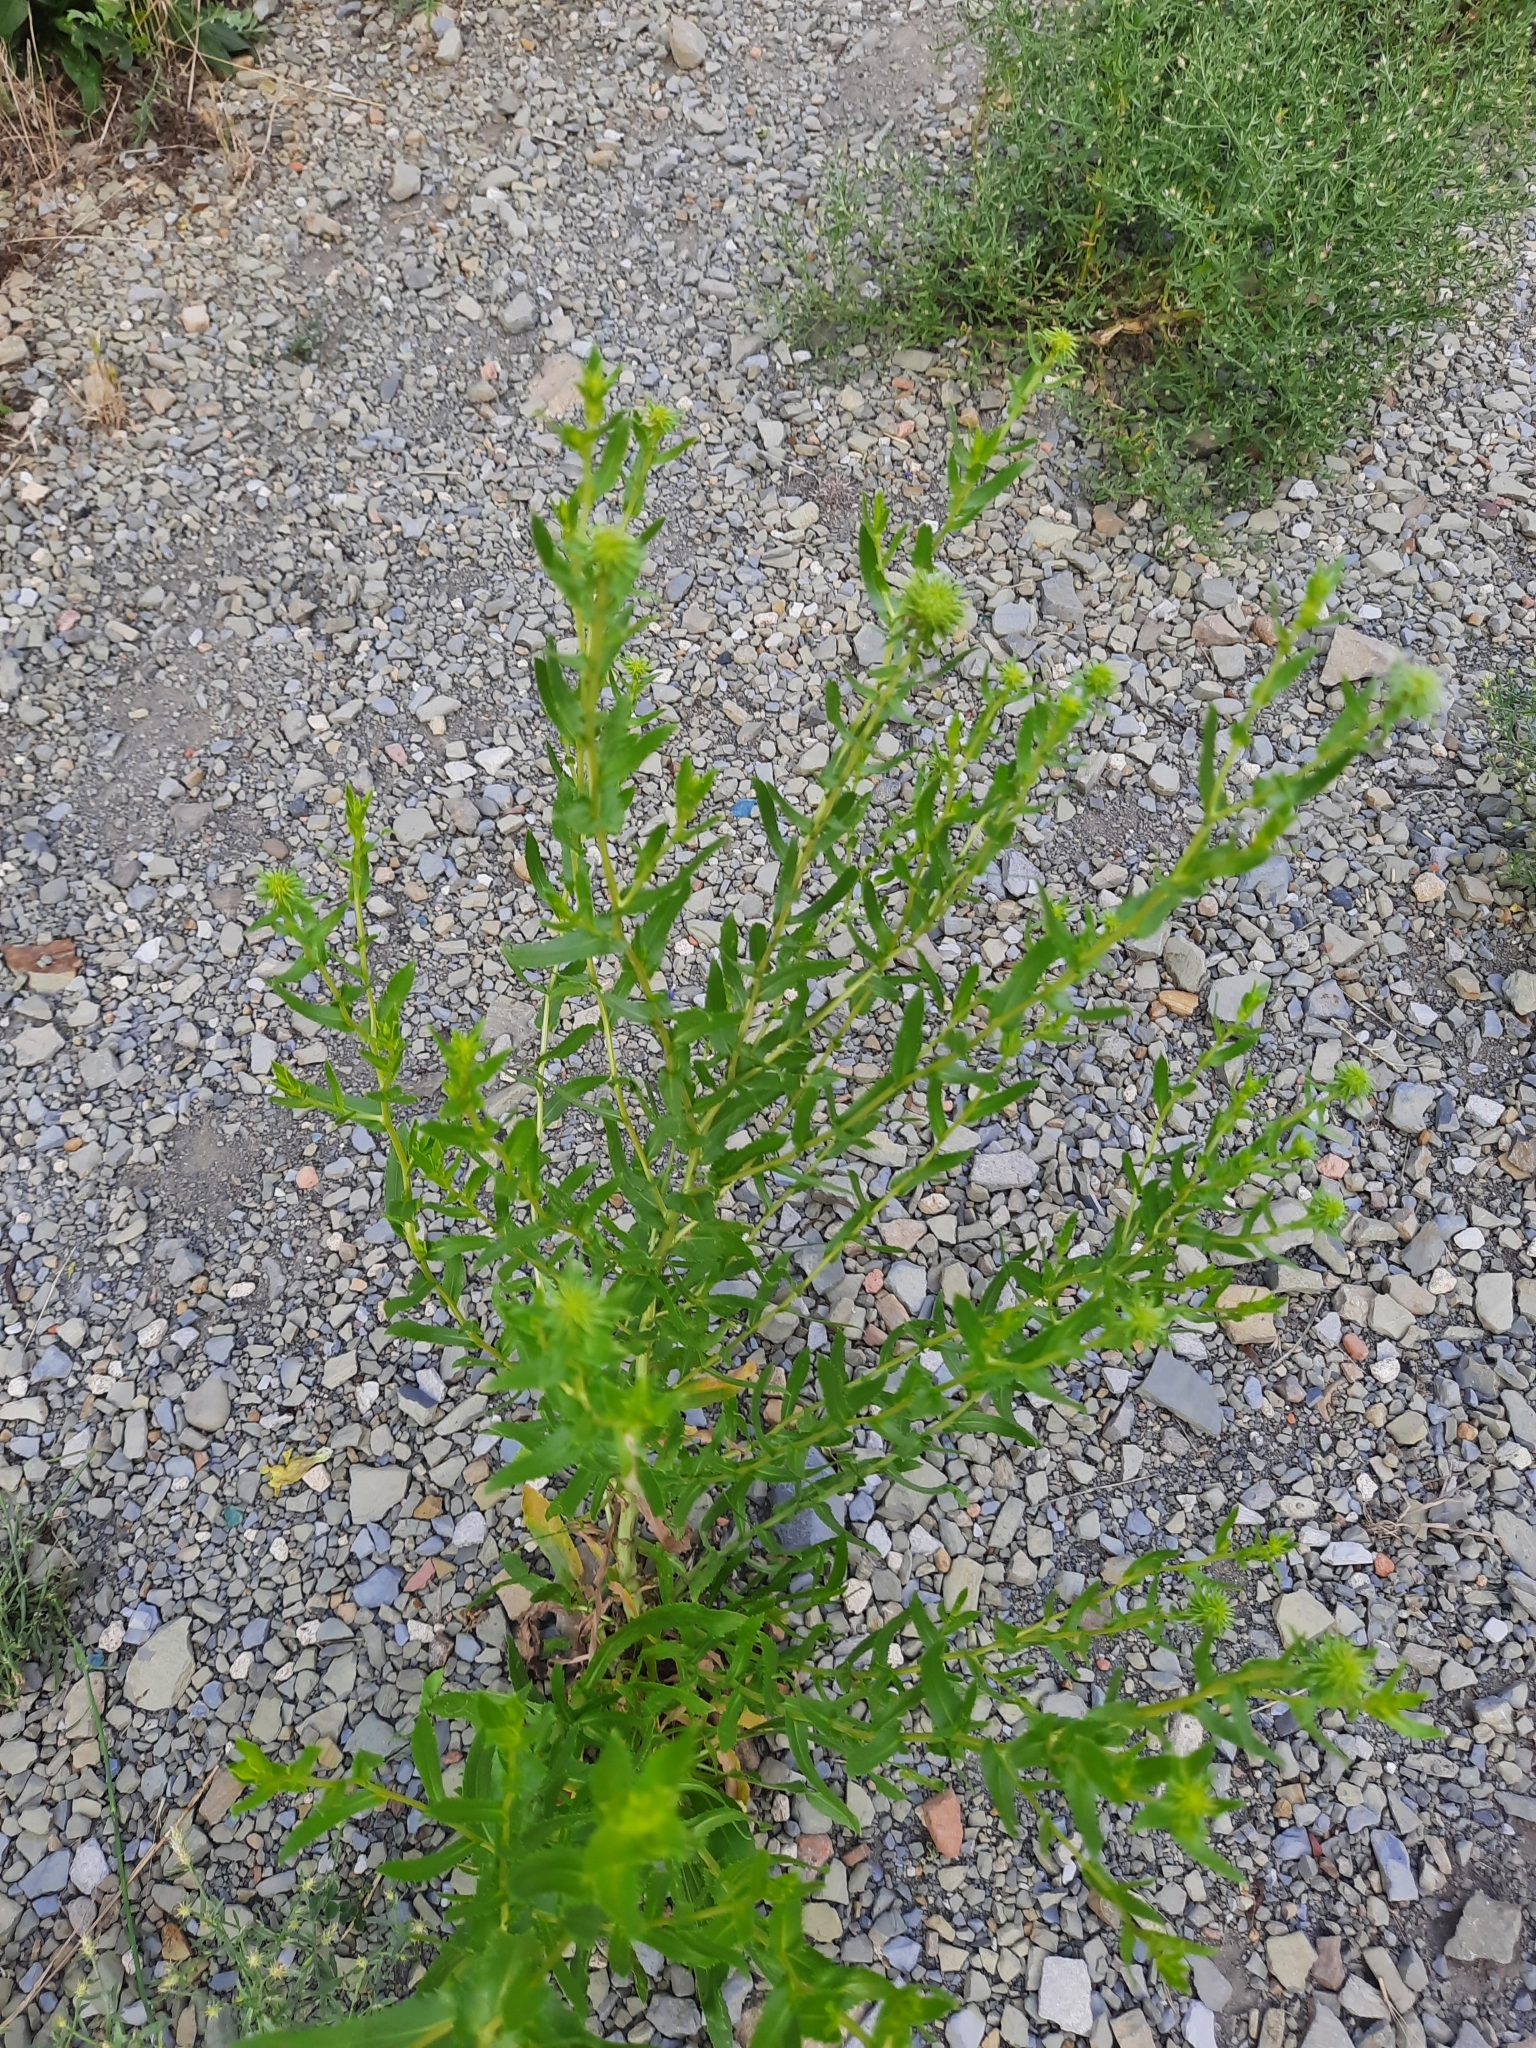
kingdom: Plantae
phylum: Tracheophyta
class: Magnoliopsida
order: Asterales
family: Asteraceae
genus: Grindelia
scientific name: Grindelia squarrosa
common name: Curly-cup gumweed
